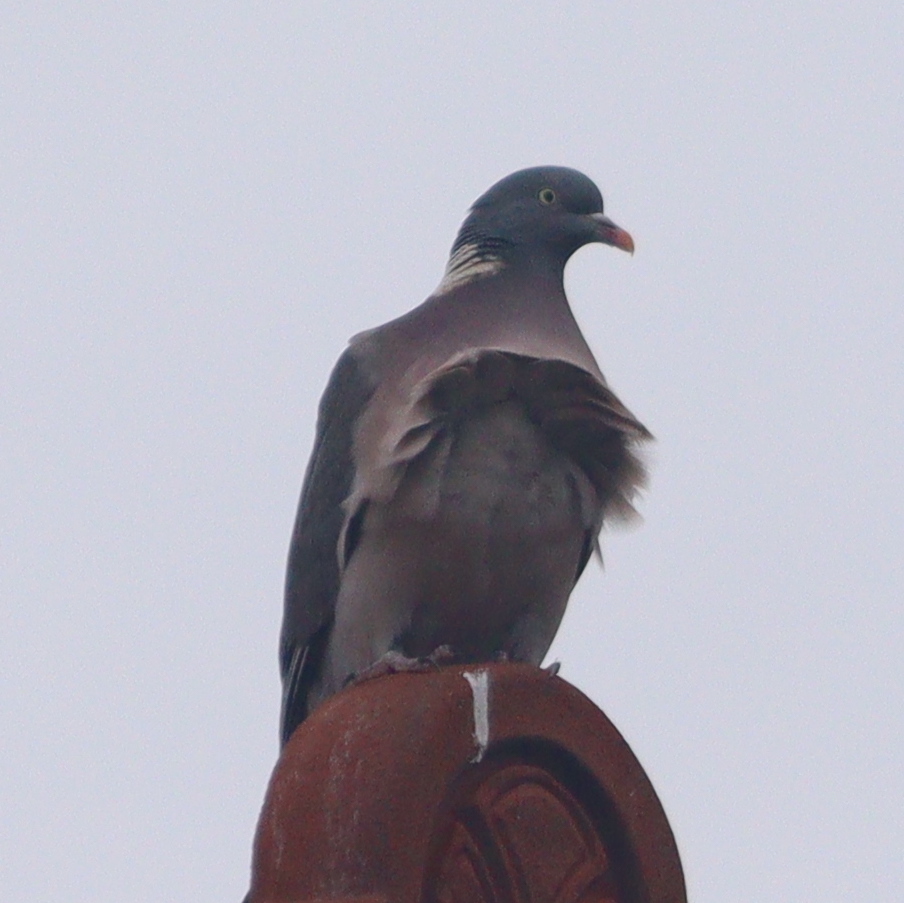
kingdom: Animalia
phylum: Chordata
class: Aves
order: Columbiformes
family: Columbidae
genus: Columba
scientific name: Columba palumbus
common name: Common wood pigeon
